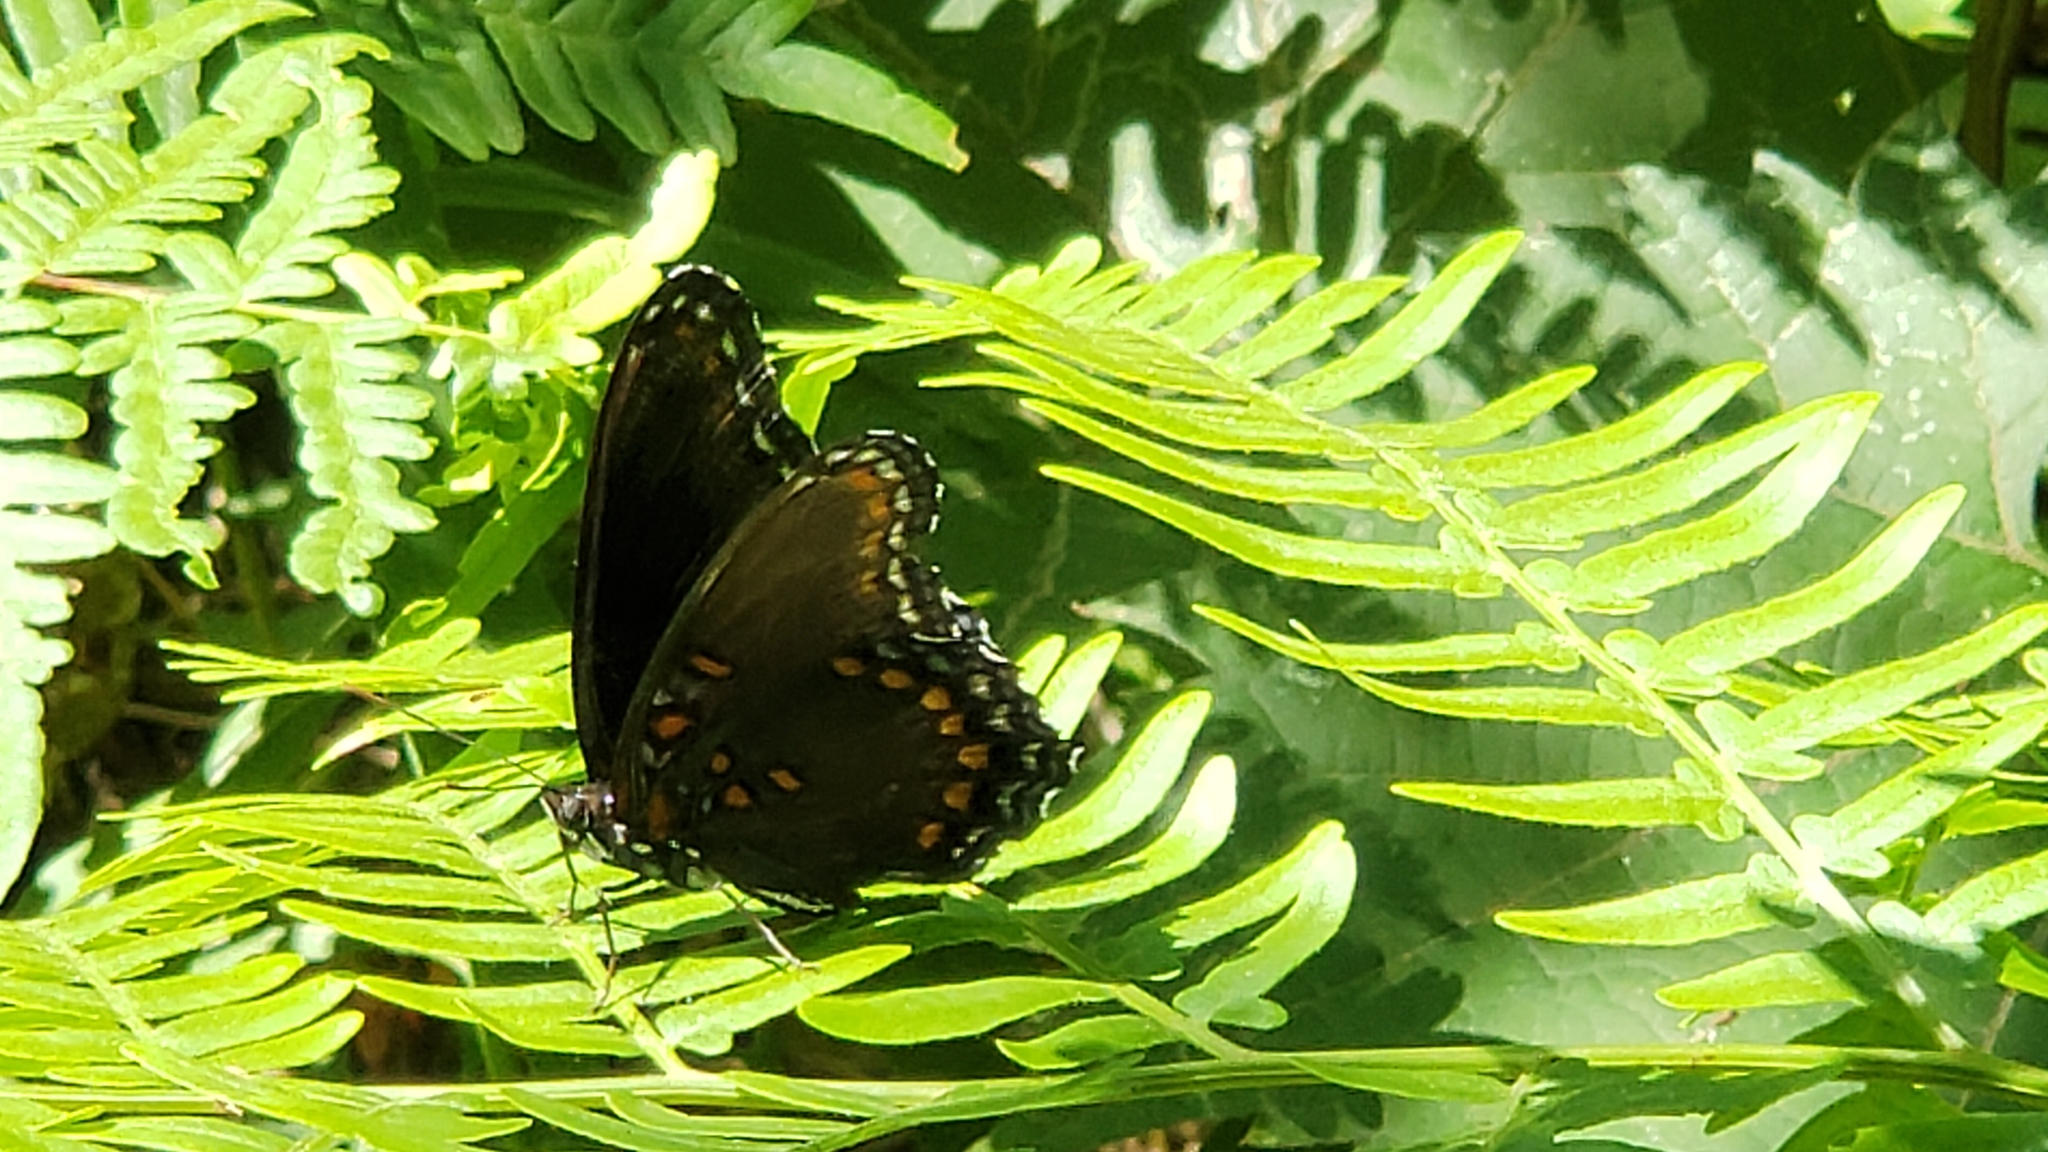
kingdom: Animalia
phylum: Arthropoda
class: Insecta
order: Lepidoptera
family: Nymphalidae
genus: Limenitis
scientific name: Limenitis astyanax
